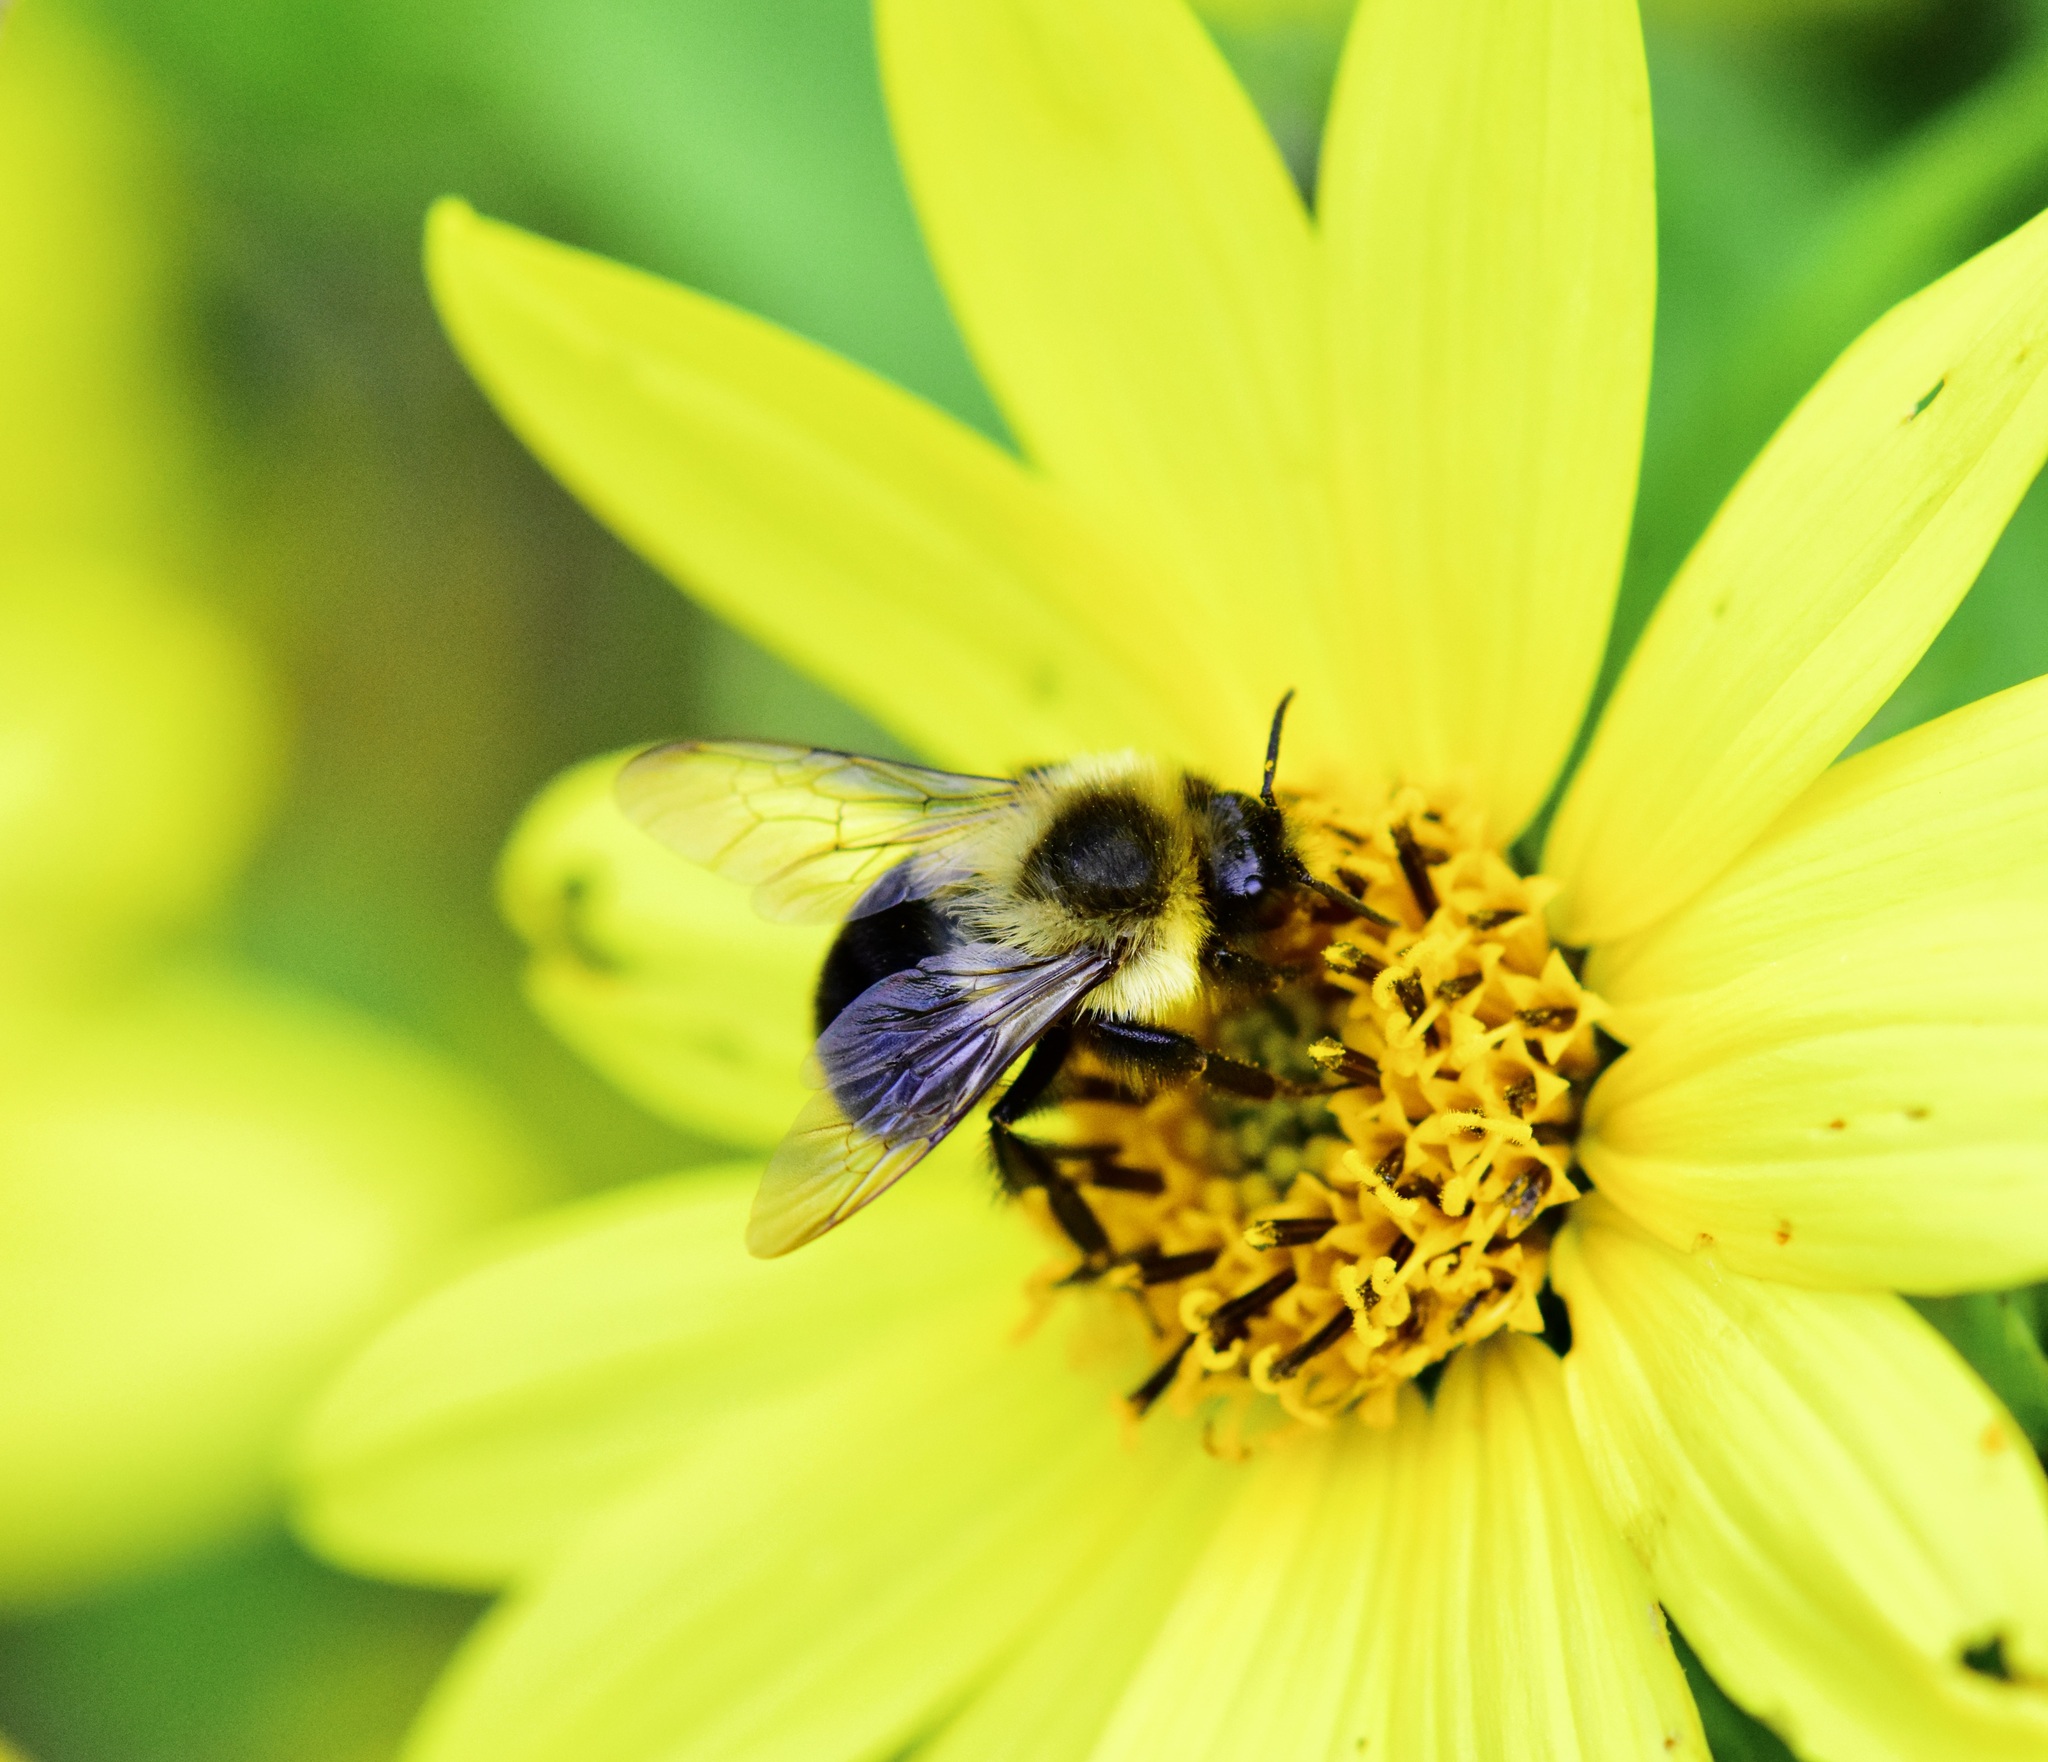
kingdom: Animalia
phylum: Arthropoda
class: Insecta
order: Hymenoptera
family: Apidae
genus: Bombus
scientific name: Bombus impatiens
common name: Common eastern bumble bee
